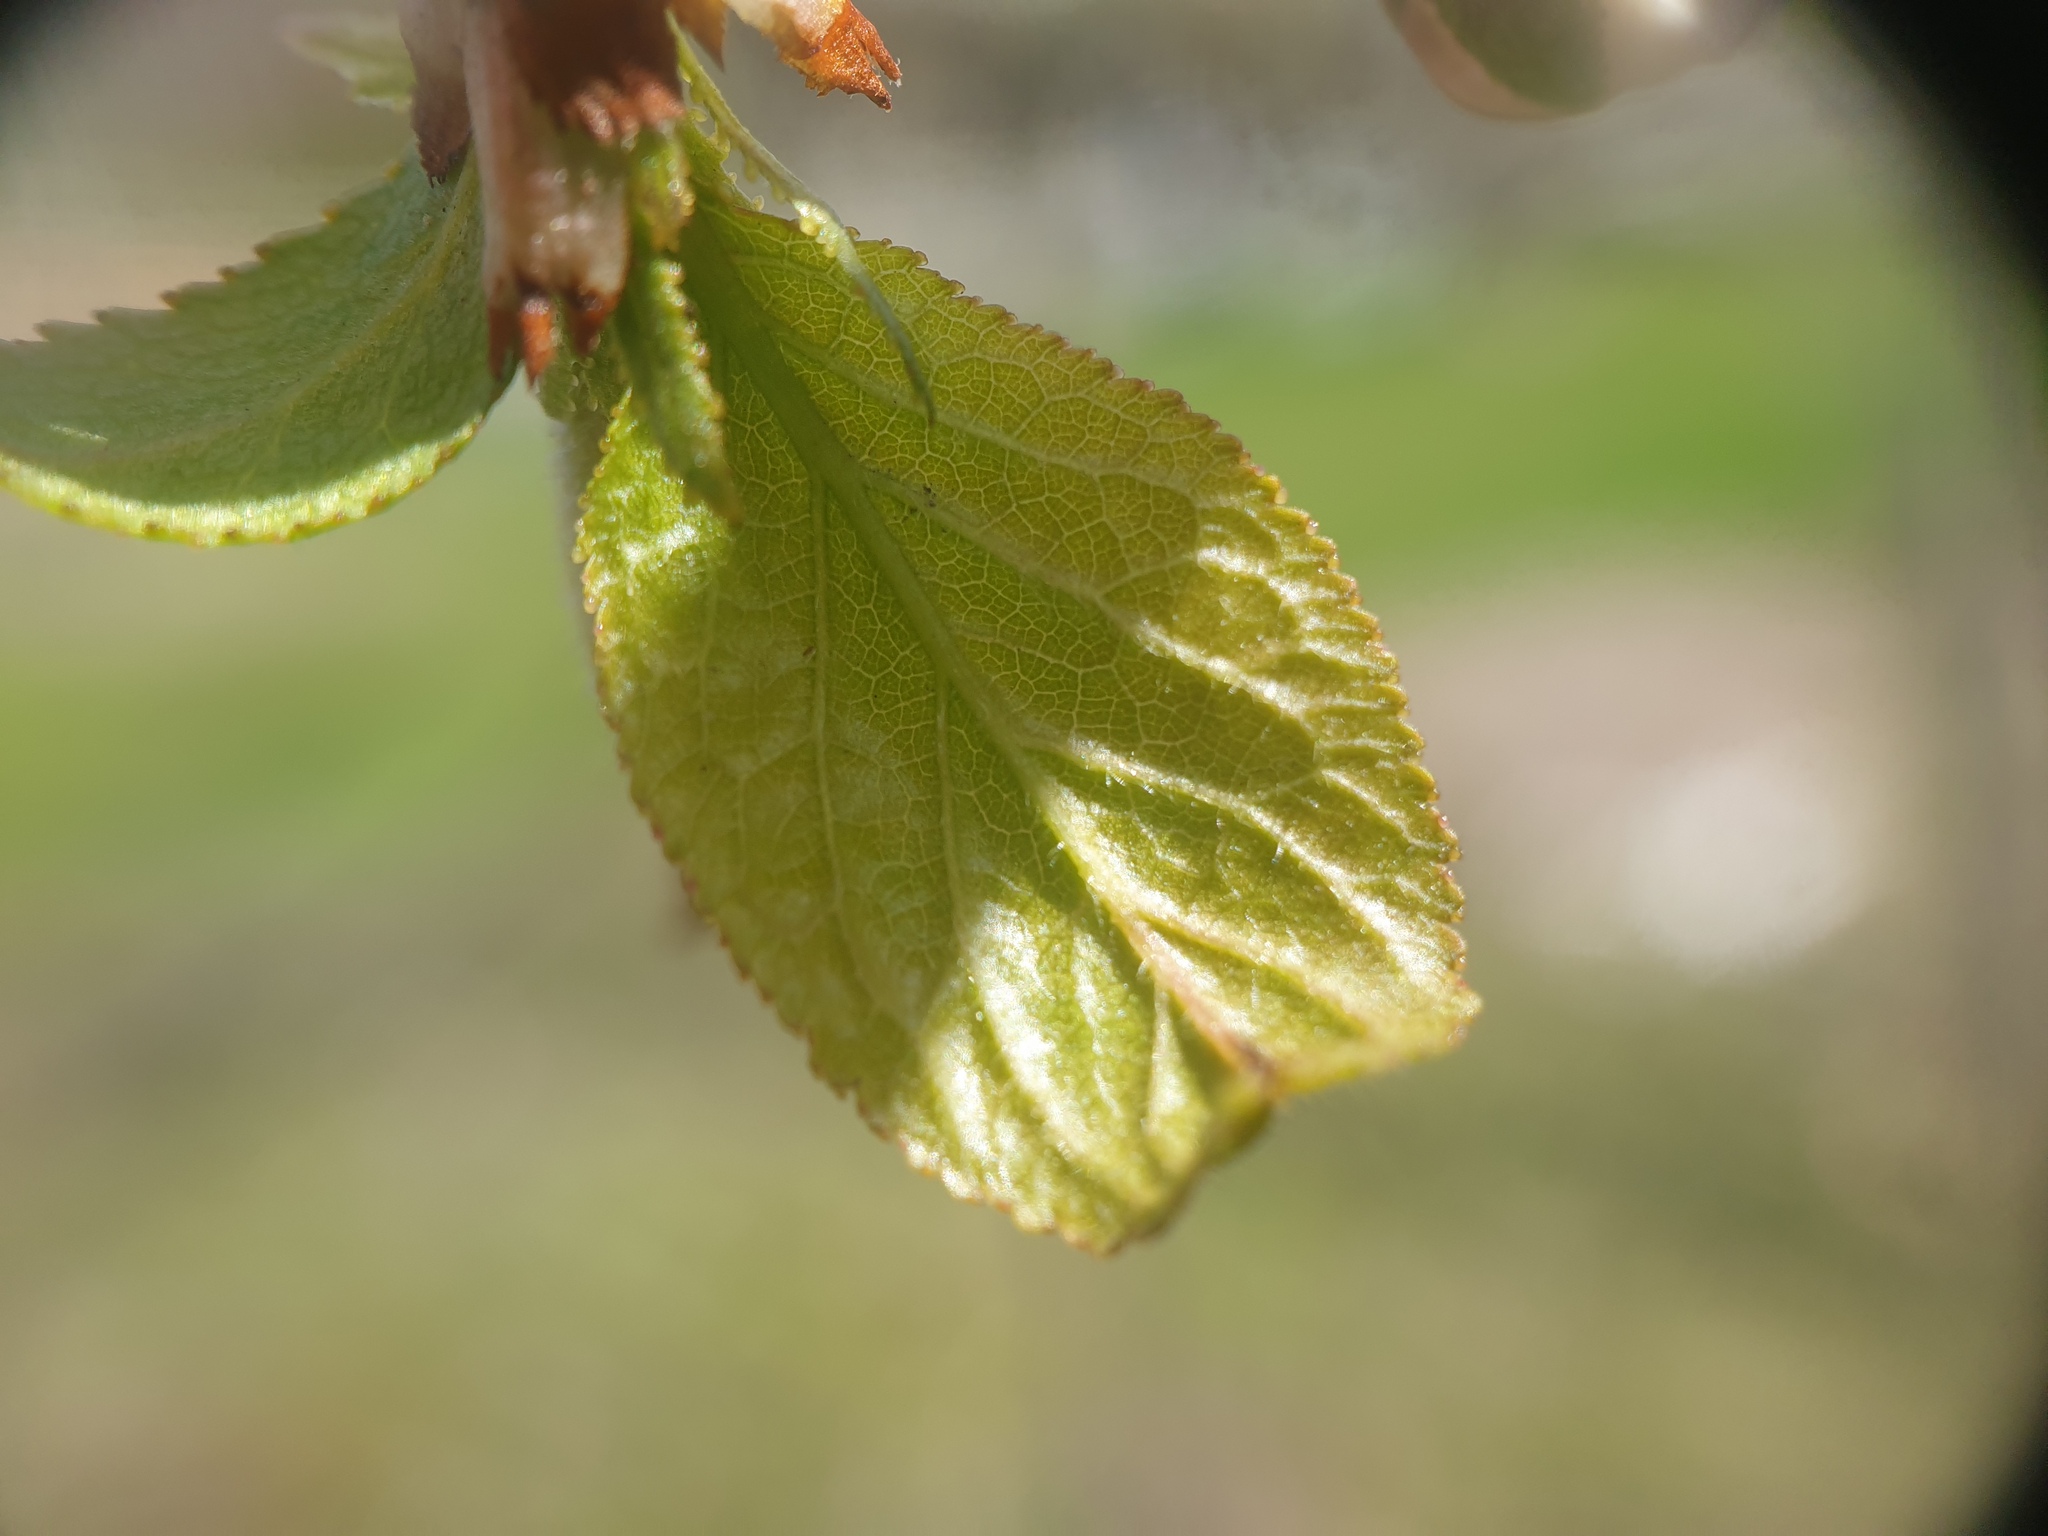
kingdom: Plantae
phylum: Tracheophyta
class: Magnoliopsida
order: Rosales
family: Rosaceae
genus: Prunus
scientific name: Prunus nigra
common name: Black plum
